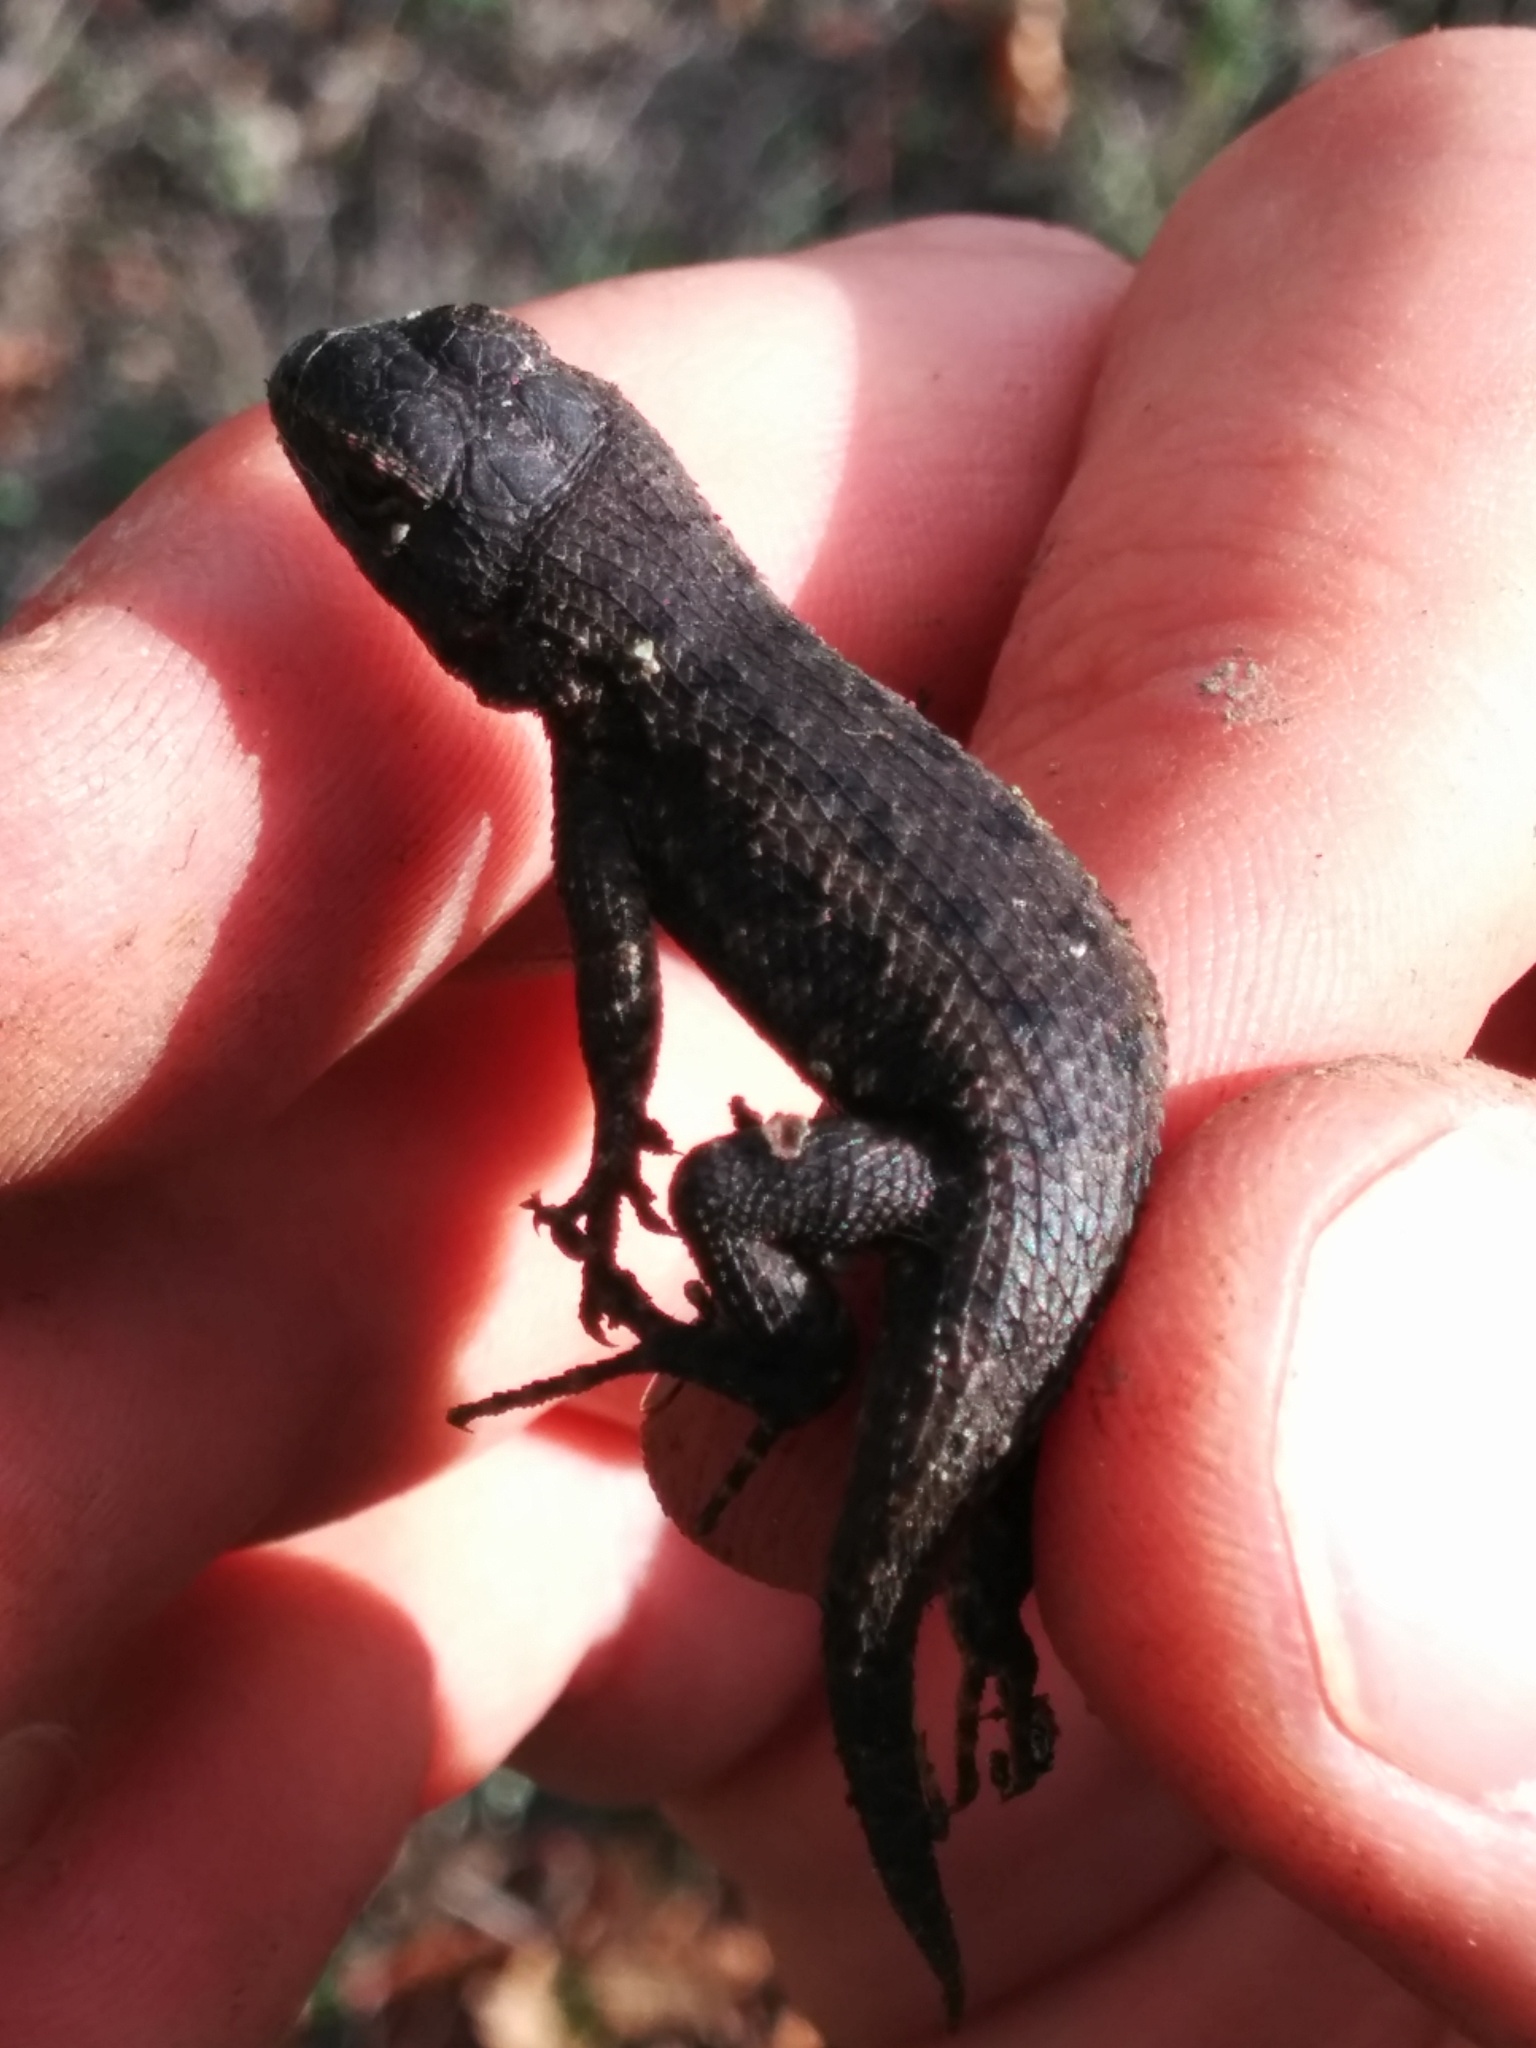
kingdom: Animalia
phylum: Chordata
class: Squamata
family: Phrynosomatidae
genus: Sceloporus
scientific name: Sceloporus occidentalis
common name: Western fence lizard
